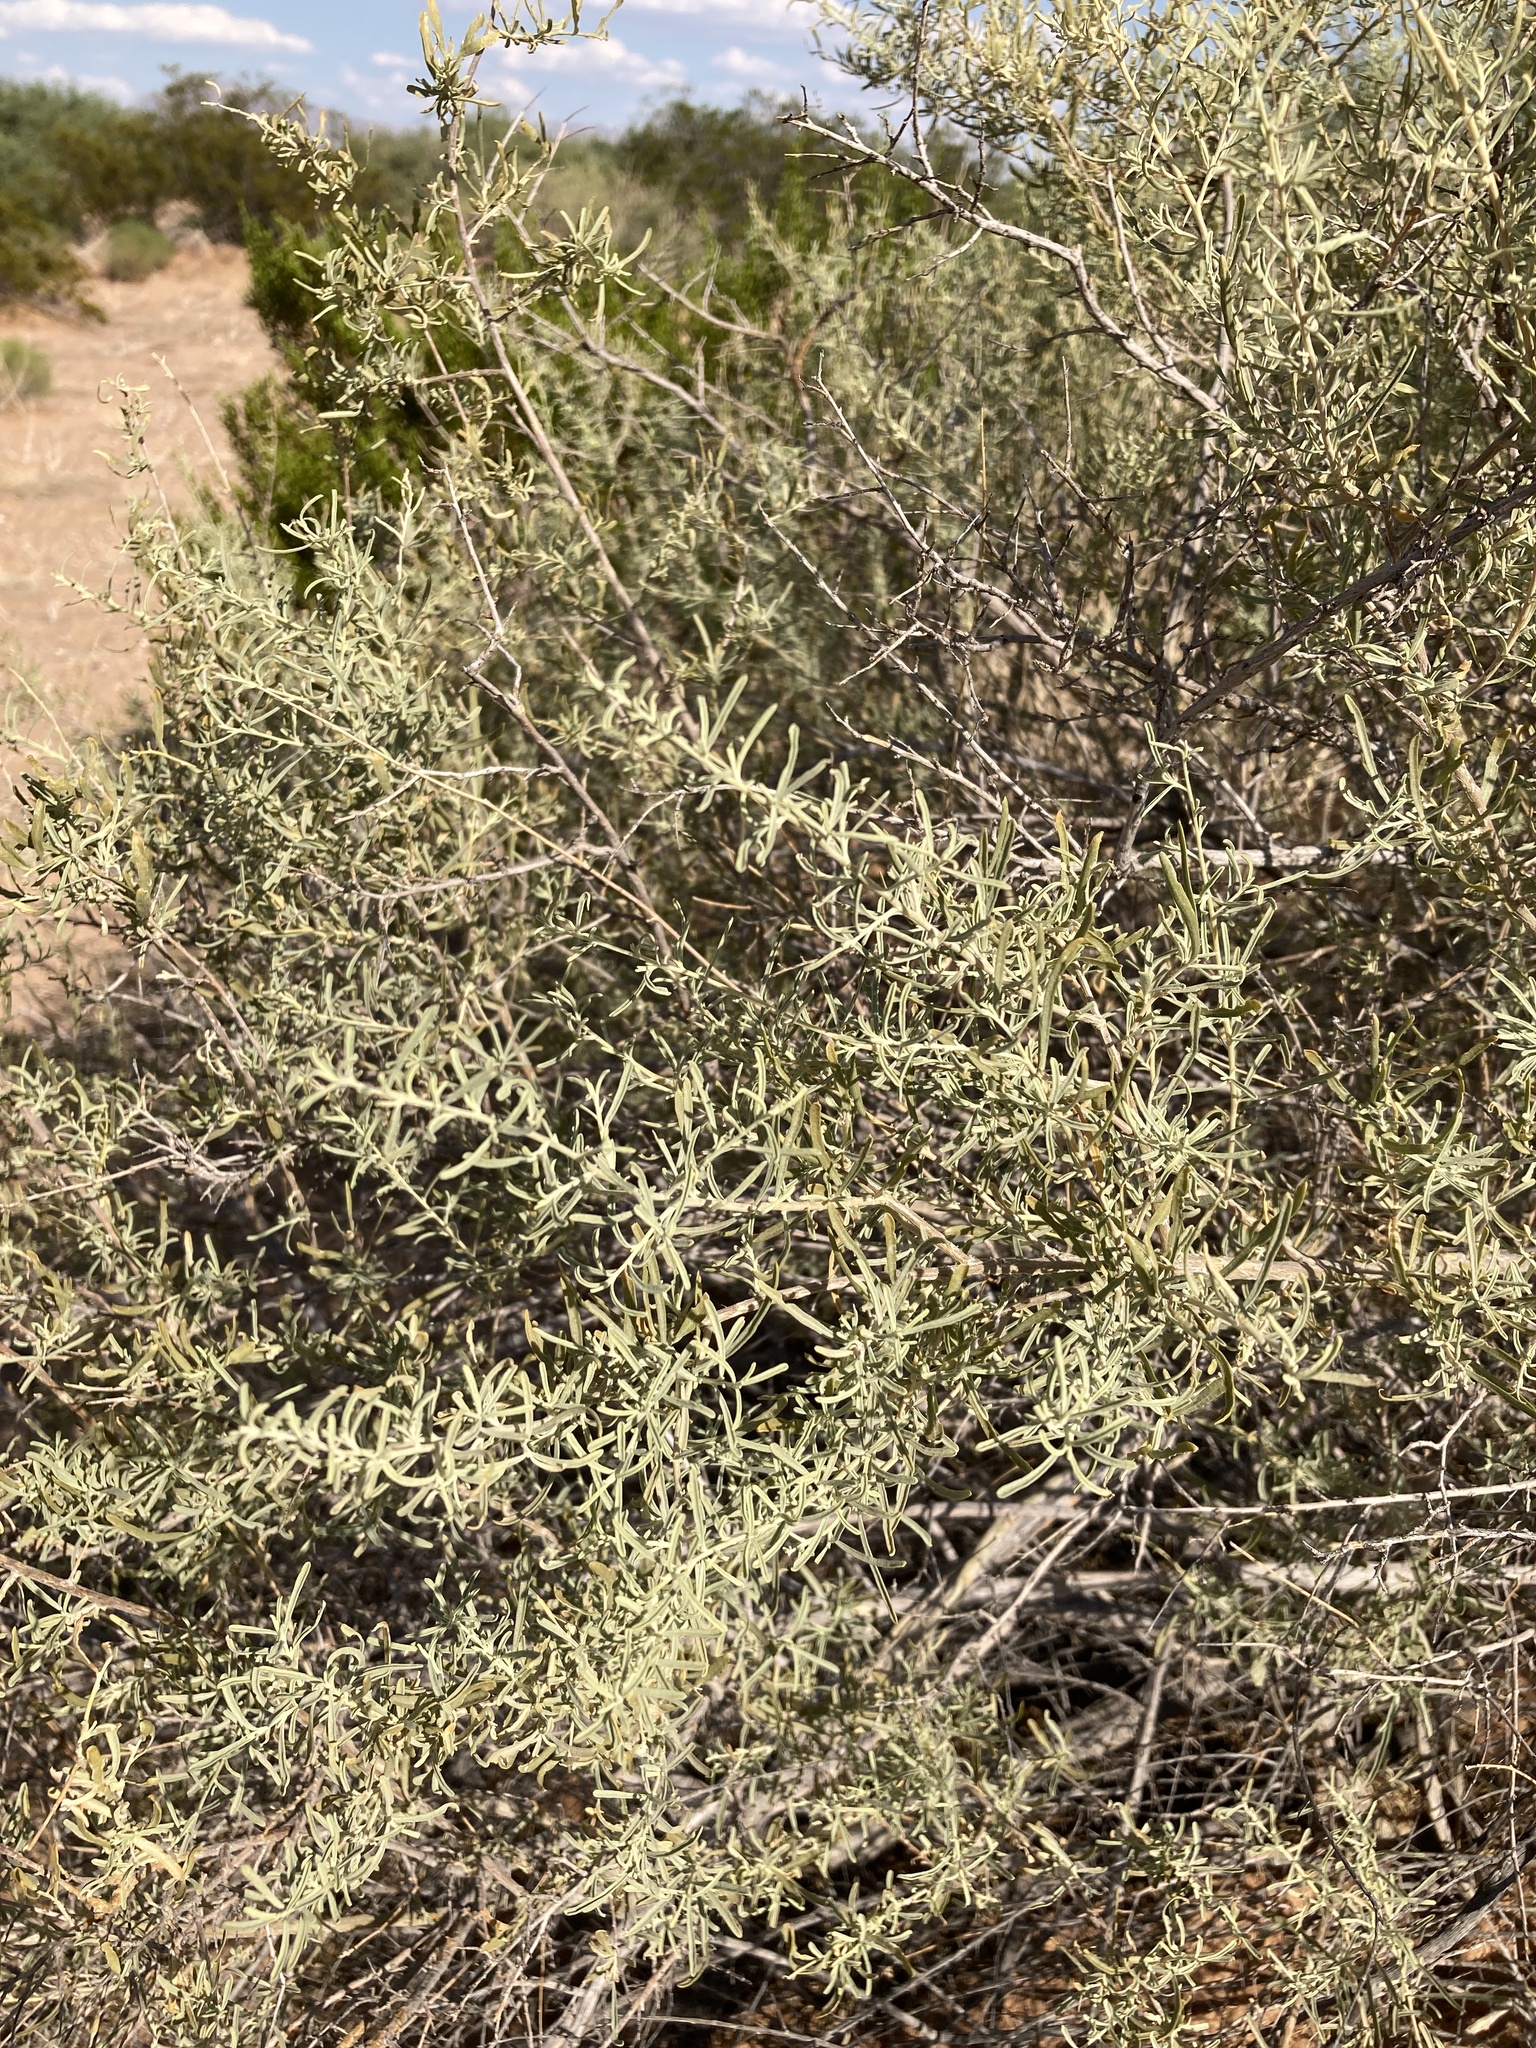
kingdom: Plantae
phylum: Tracheophyta
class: Magnoliopsida
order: Caryophyllales
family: Amaranthaceae
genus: Atriplex
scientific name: Atriplex canescens
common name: Four-wing saltbush
